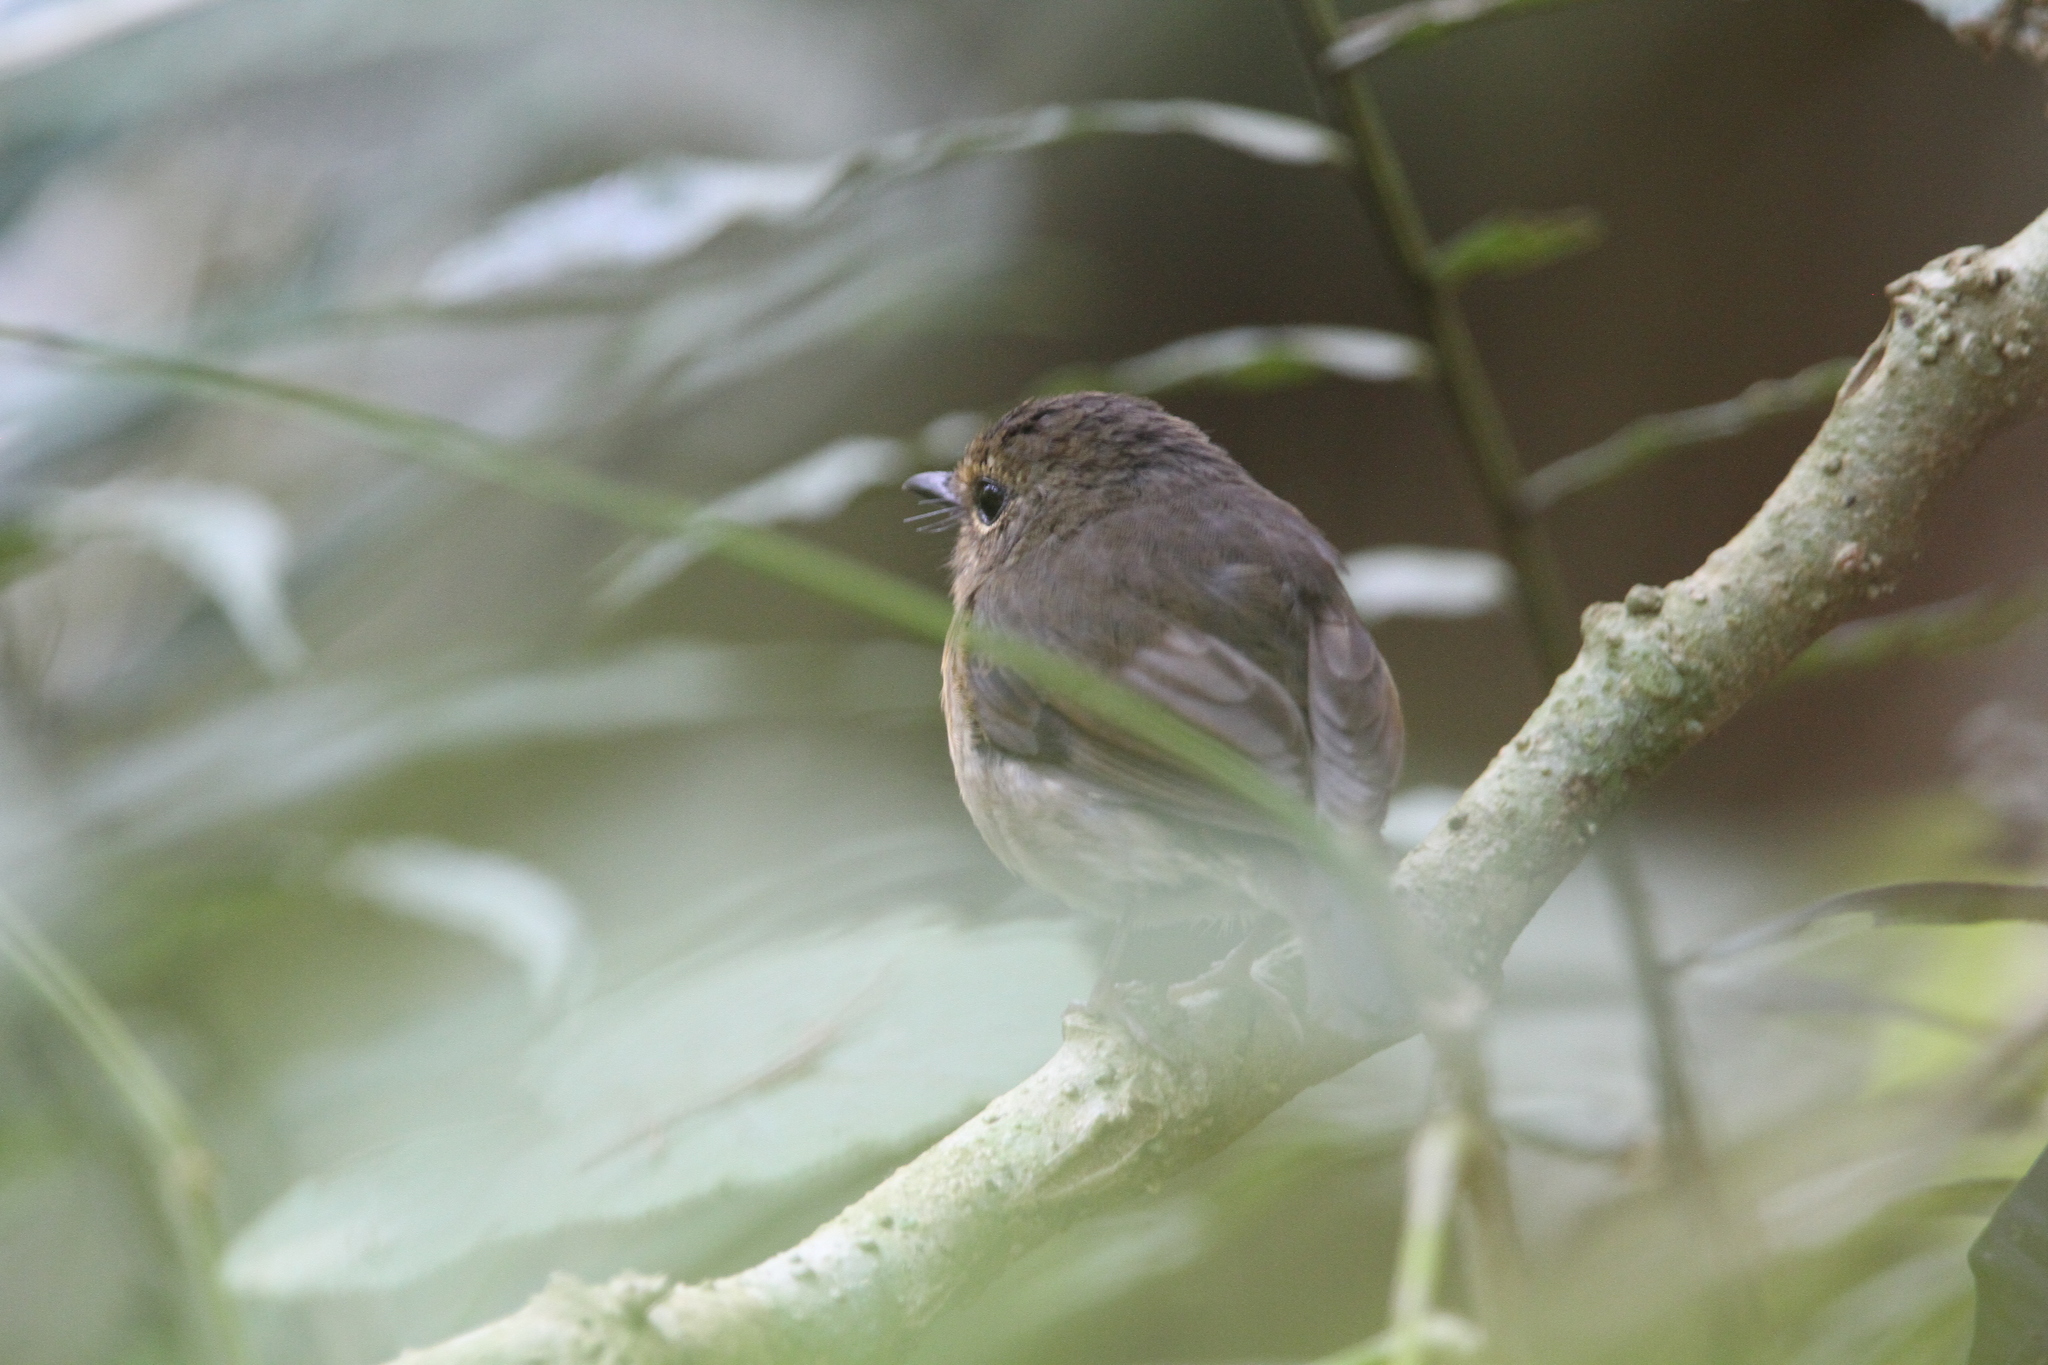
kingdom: Animalia
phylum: Chordata
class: Aves
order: Passeriformes
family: Muscicapidae
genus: Ficedula
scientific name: Ficedula hyperythra
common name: Snowy-browed flycatcher
